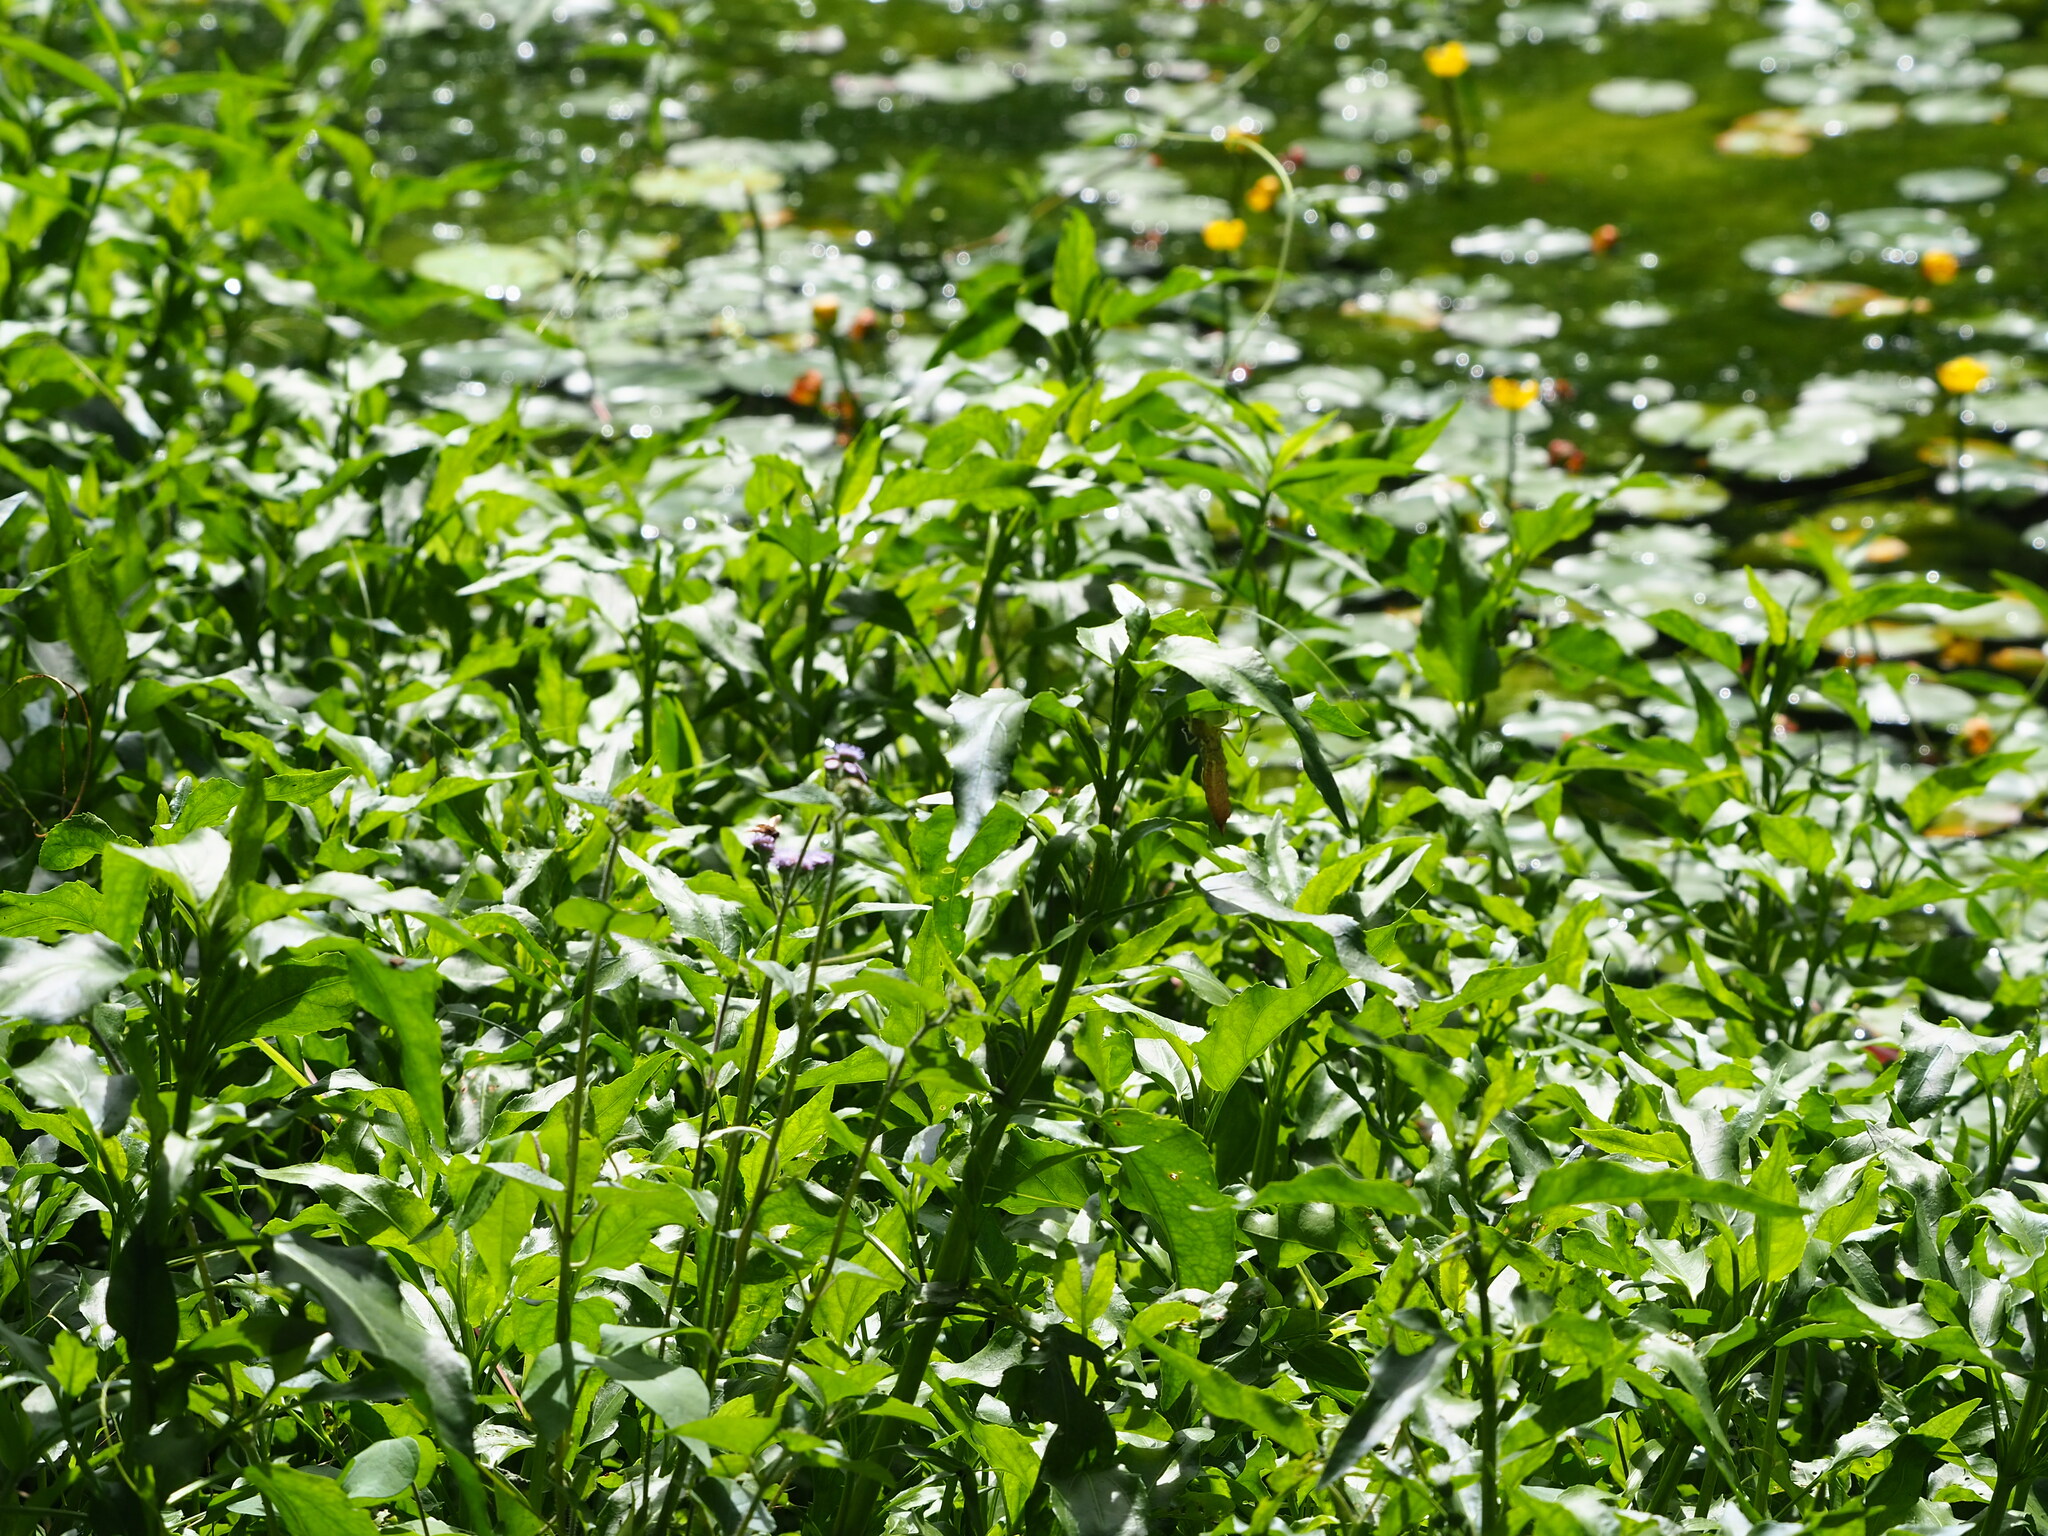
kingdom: Plantae
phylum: Tracheophyta
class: Magnoliopsida
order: Asterales
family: Asteraceae
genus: Gymnocoronis
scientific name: Gymnocoronis spilanthoides
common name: Senegal teaplant
